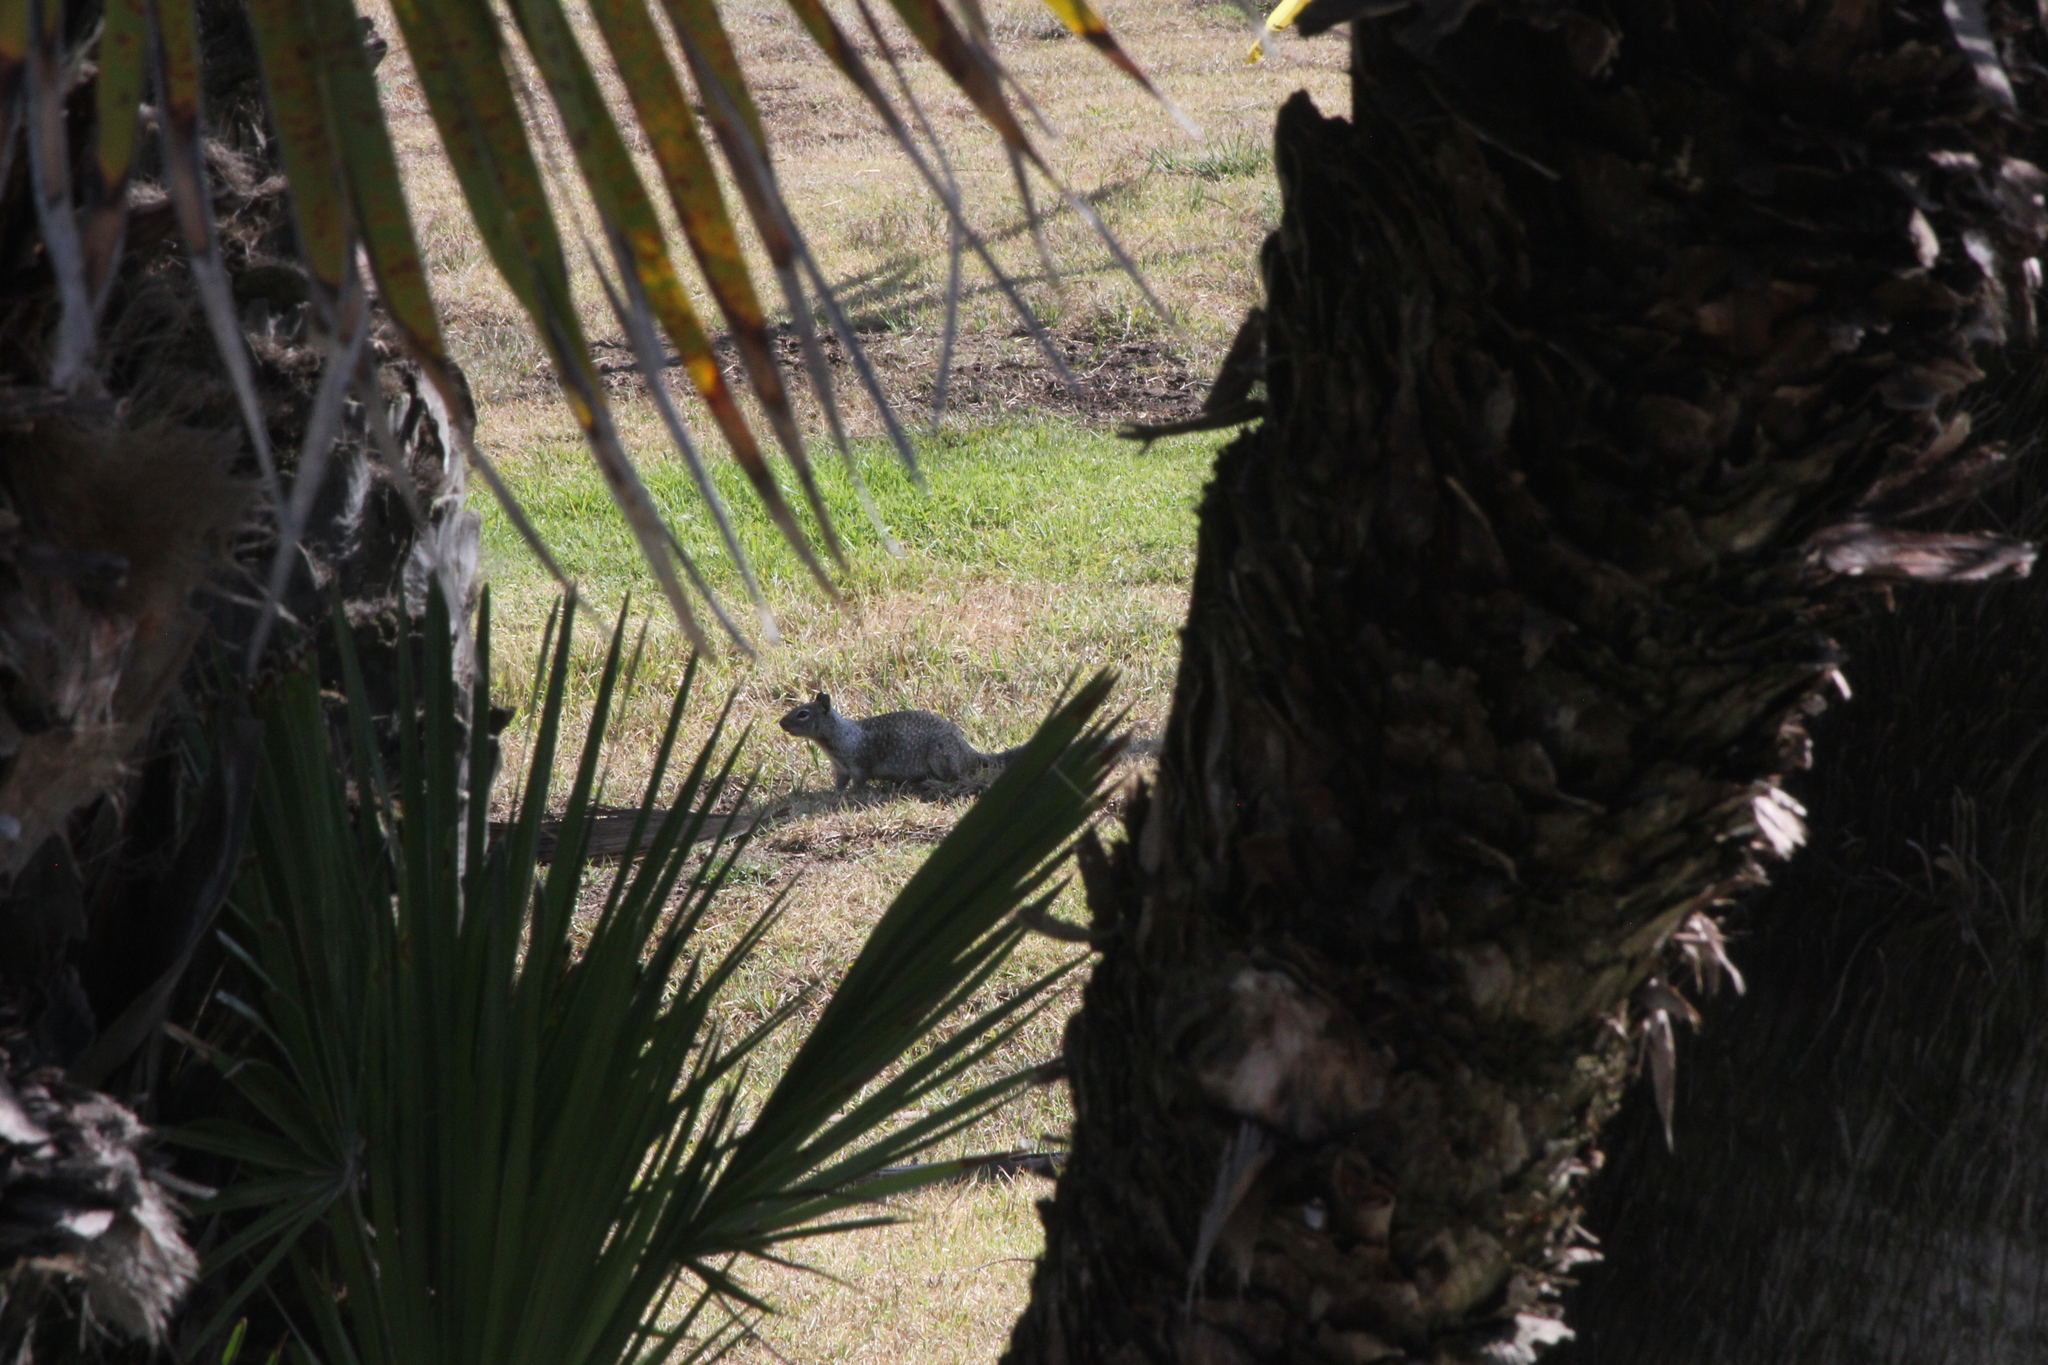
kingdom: Animalia
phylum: Chordata
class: Mammalia
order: Rodentia
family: Sciuridae
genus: Otospermophilus
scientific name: Otospermophilus beecheyi
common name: California ground squirrel
